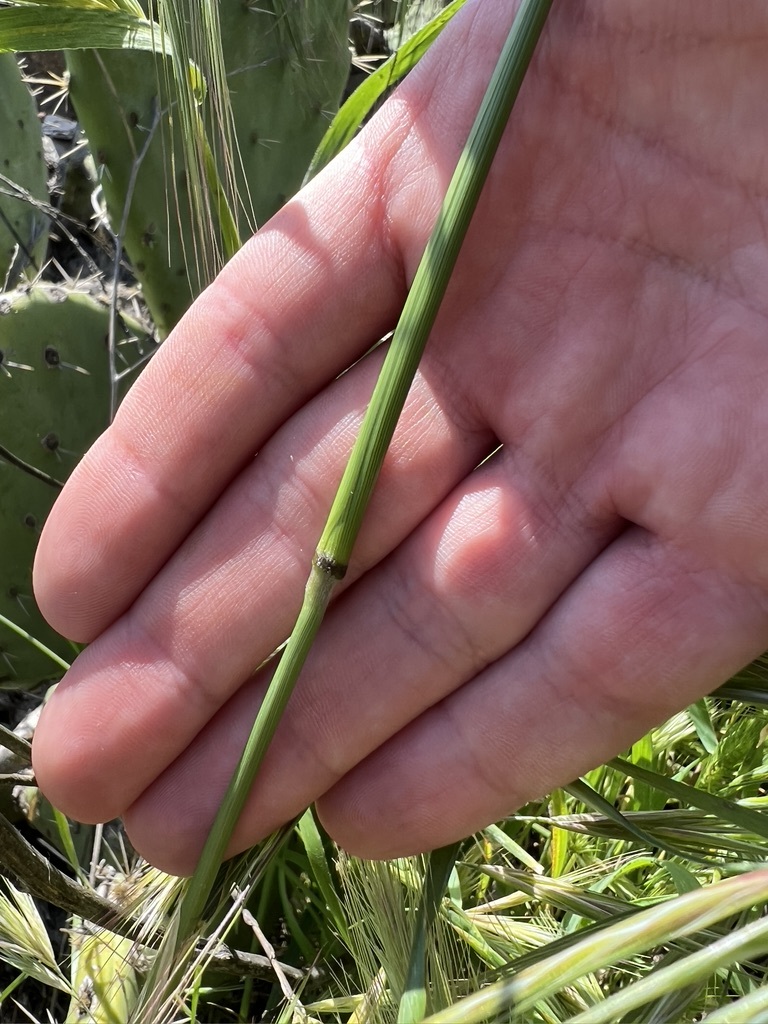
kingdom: Plantae
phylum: Tracheophyta
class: Liliopsida
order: Poales
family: Poaceae
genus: Nassella
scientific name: Nassella pulchra
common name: Purple needlegrass
